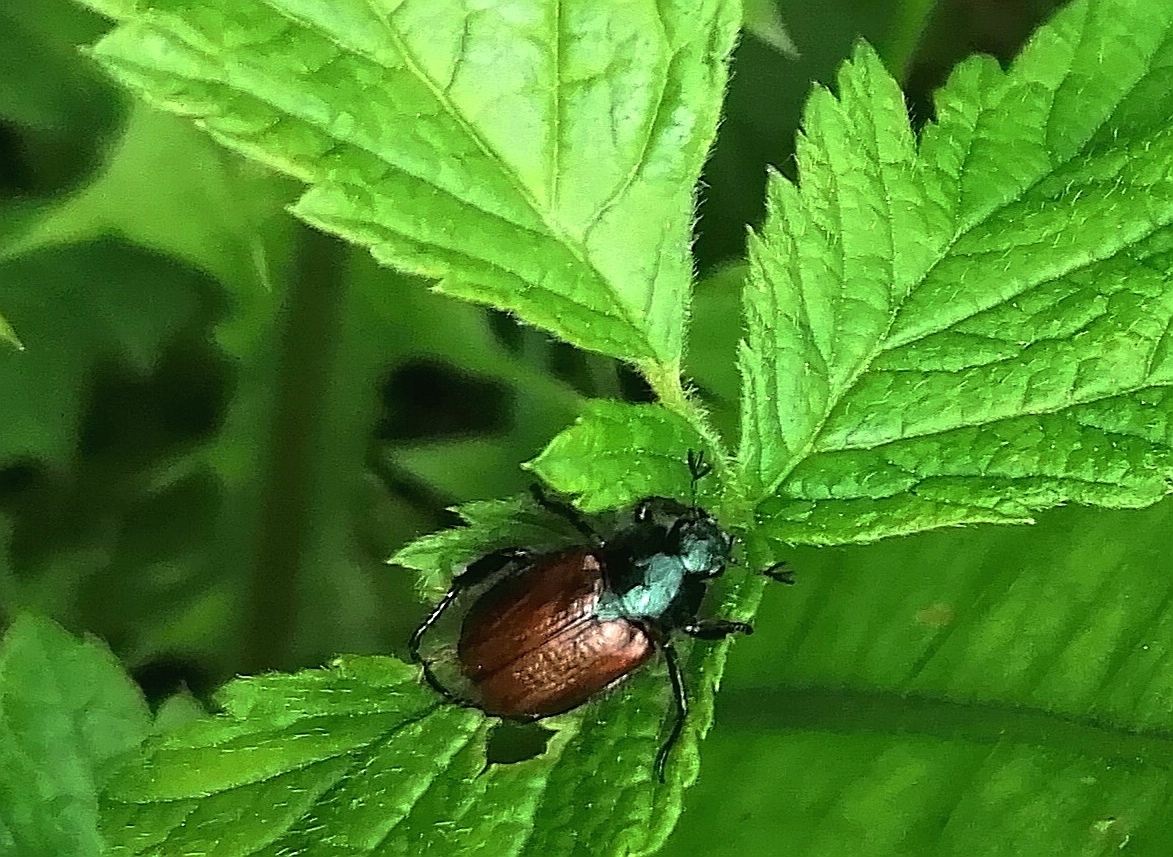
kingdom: Animalia
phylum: Arthropoda
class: Insecta
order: Coleoptera
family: Scarabaeidae
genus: Phyllopertha
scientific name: Phyllopertha horticola
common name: Garden chafer
